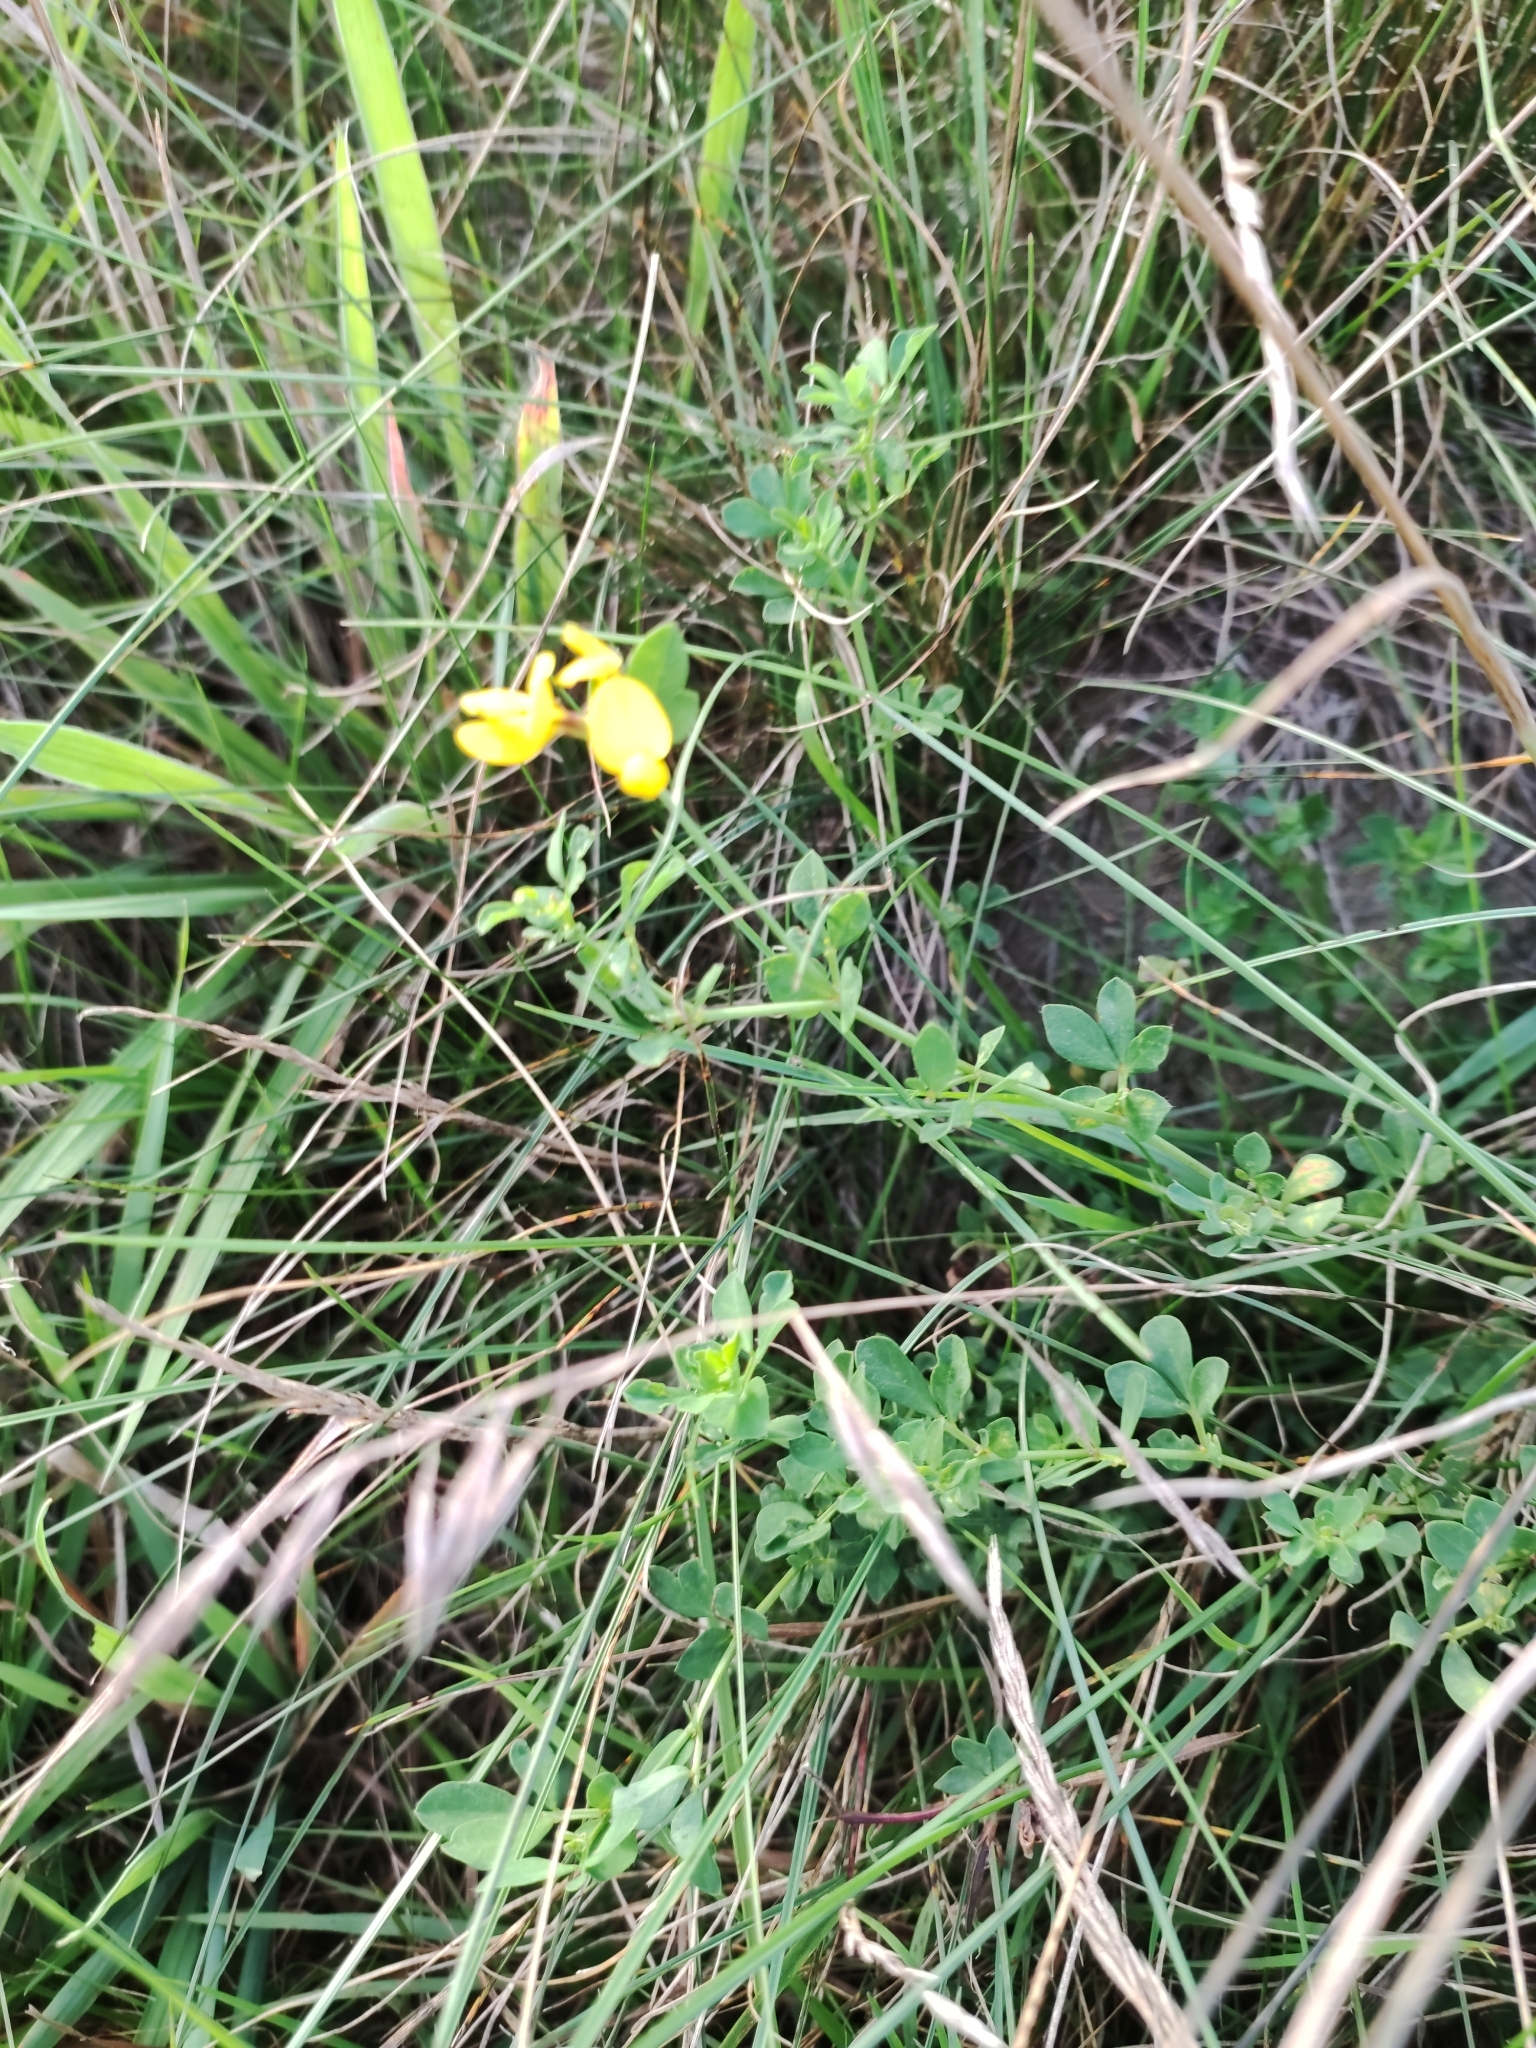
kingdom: Plantae
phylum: Tracheophyta
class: Magnoliopsida
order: Fabales
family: Fabaceae
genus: Lotus
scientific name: Lotus corniculatus
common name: Common bird's-foot-trefoil
